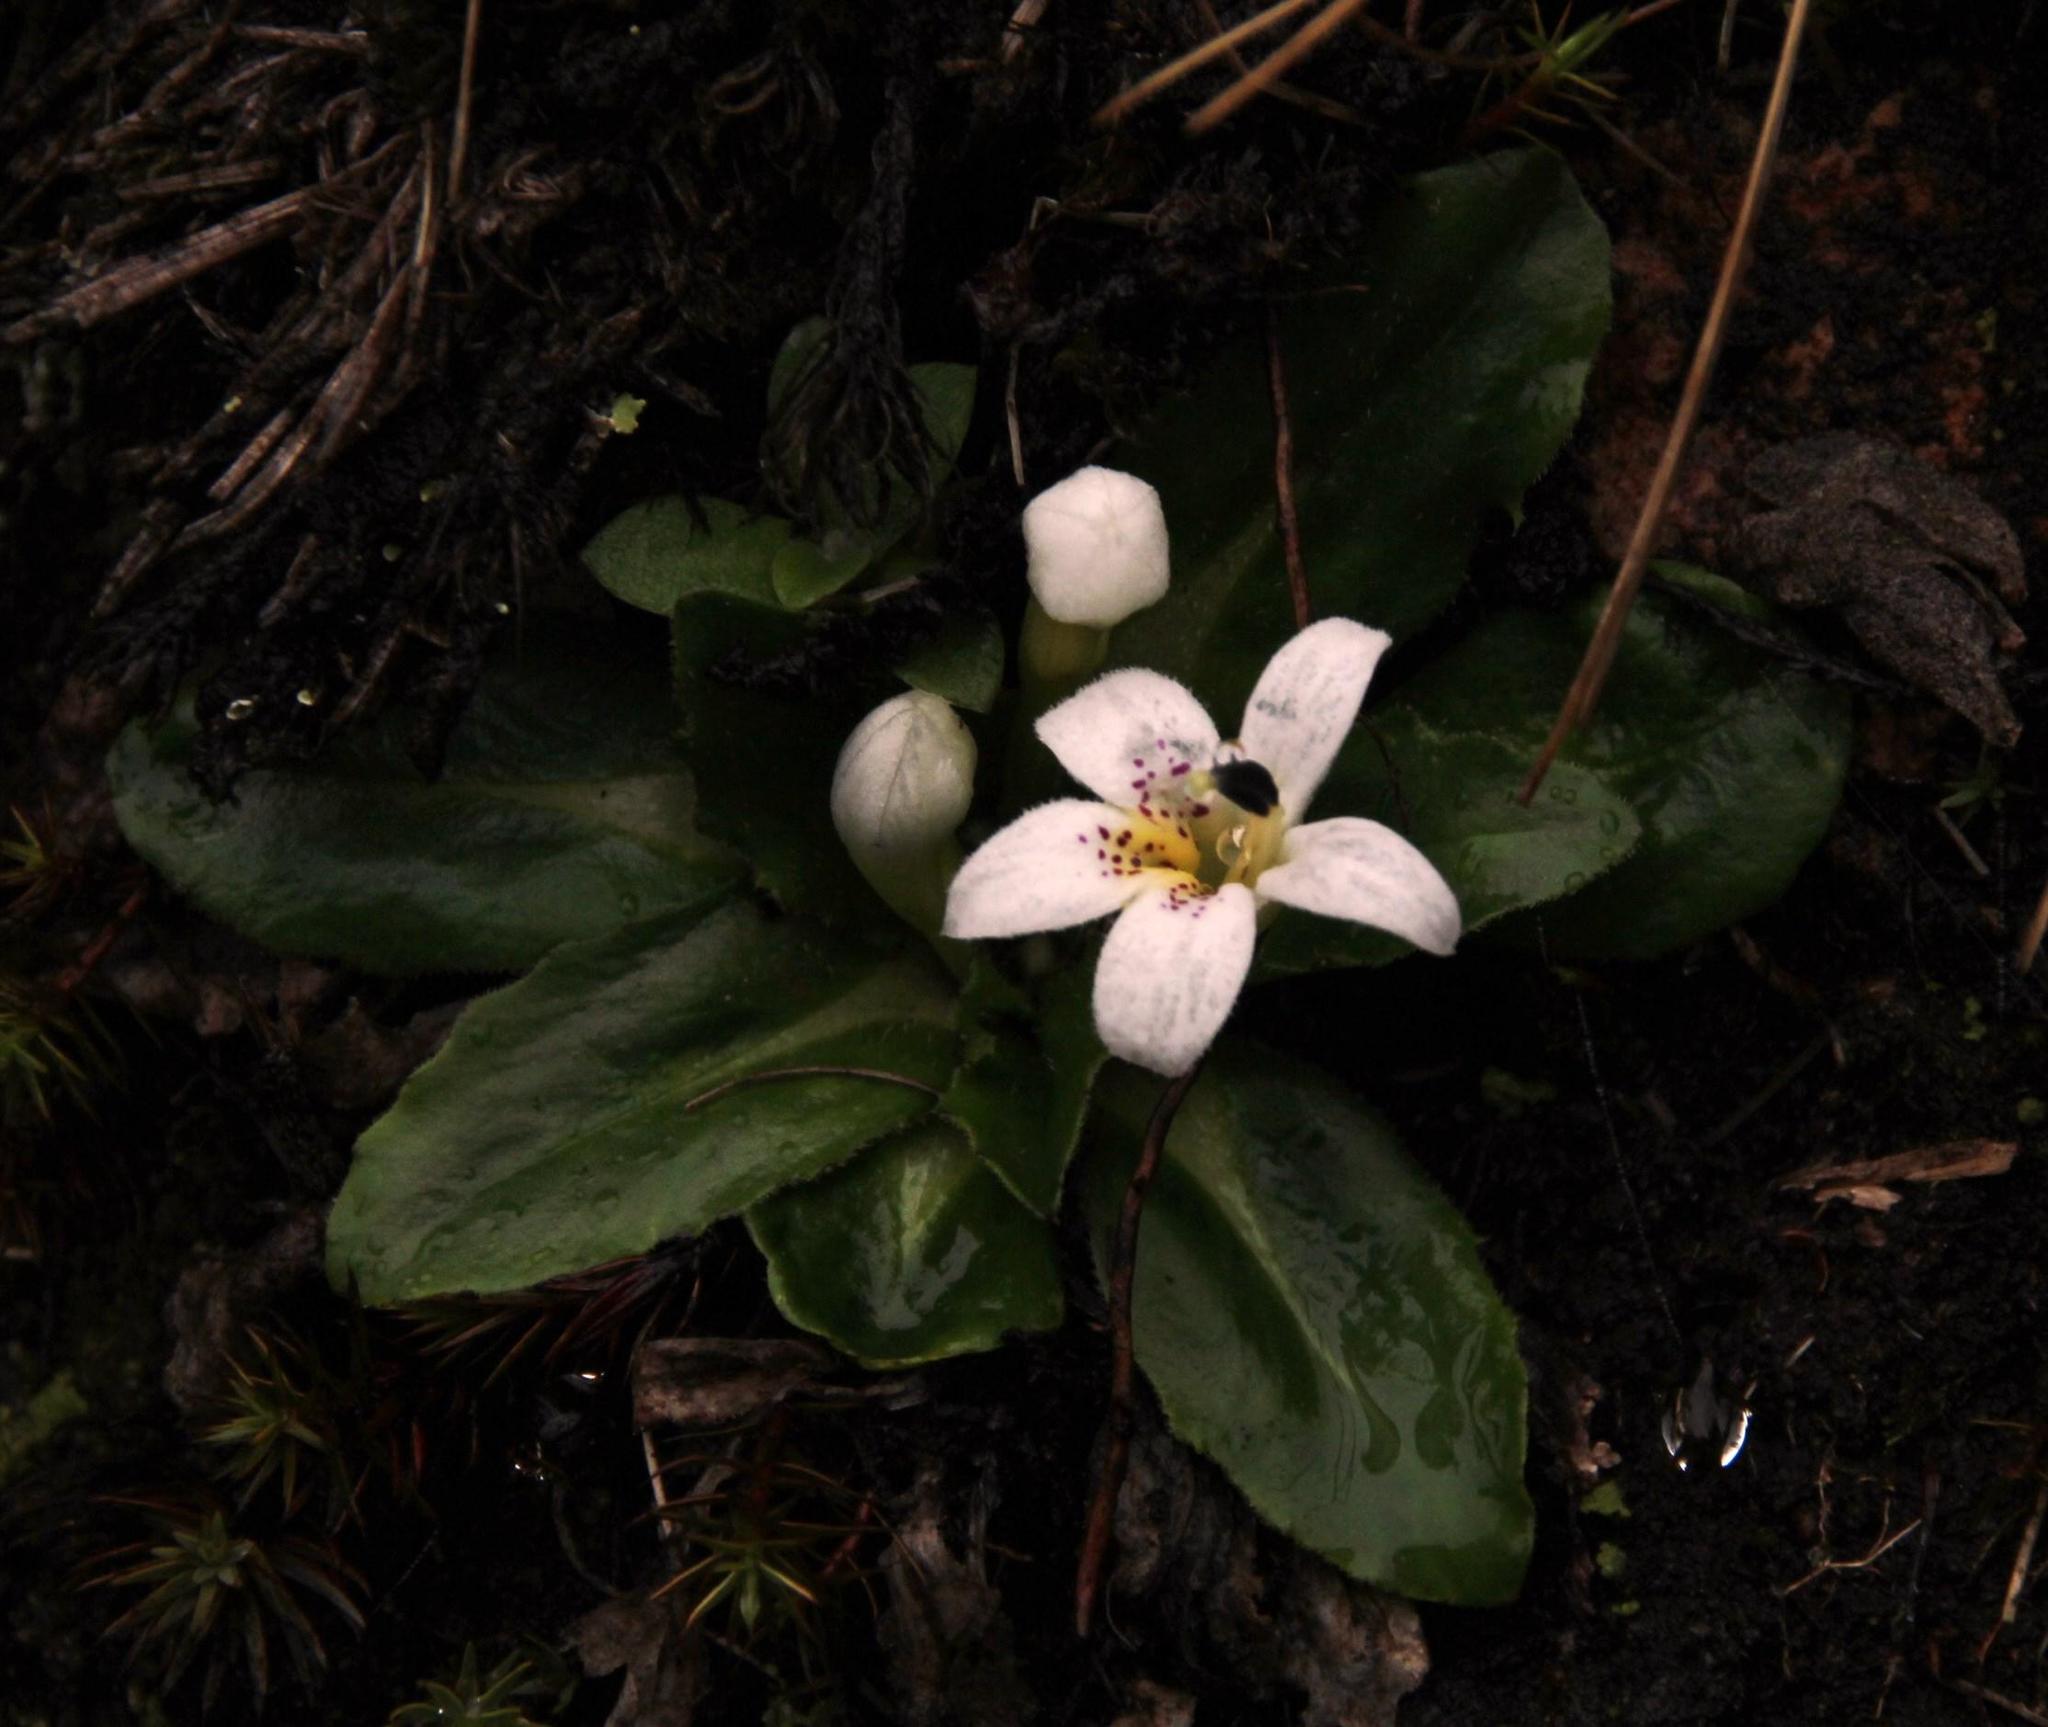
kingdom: Plantae
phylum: Tracheophyta
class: Magnoliopsida
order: Asterales
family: Campanulaceae
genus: Lysipomia
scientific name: Lysipomia laciniata
